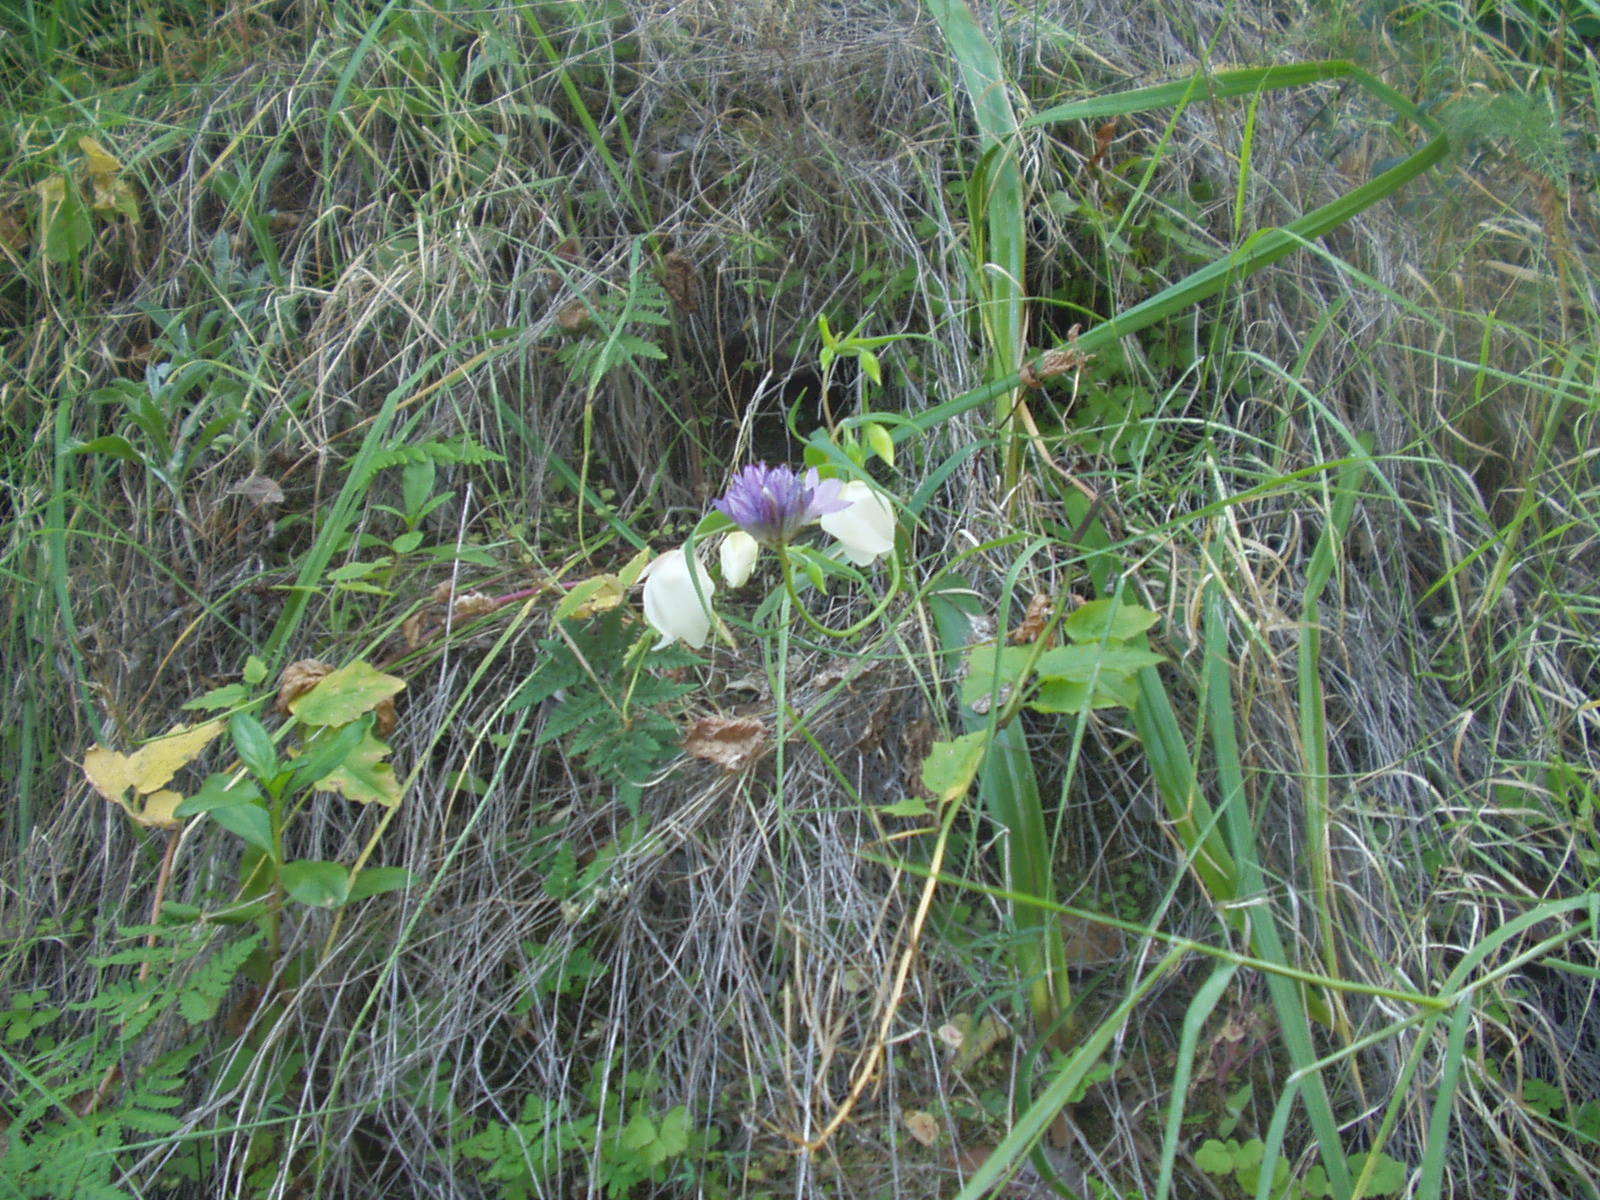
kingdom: Plantae
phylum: Tracheophyta
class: Liliopsida
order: Asparagales
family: Asparagaceae
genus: Dipterostemon
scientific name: Dipterostemon capitatus
